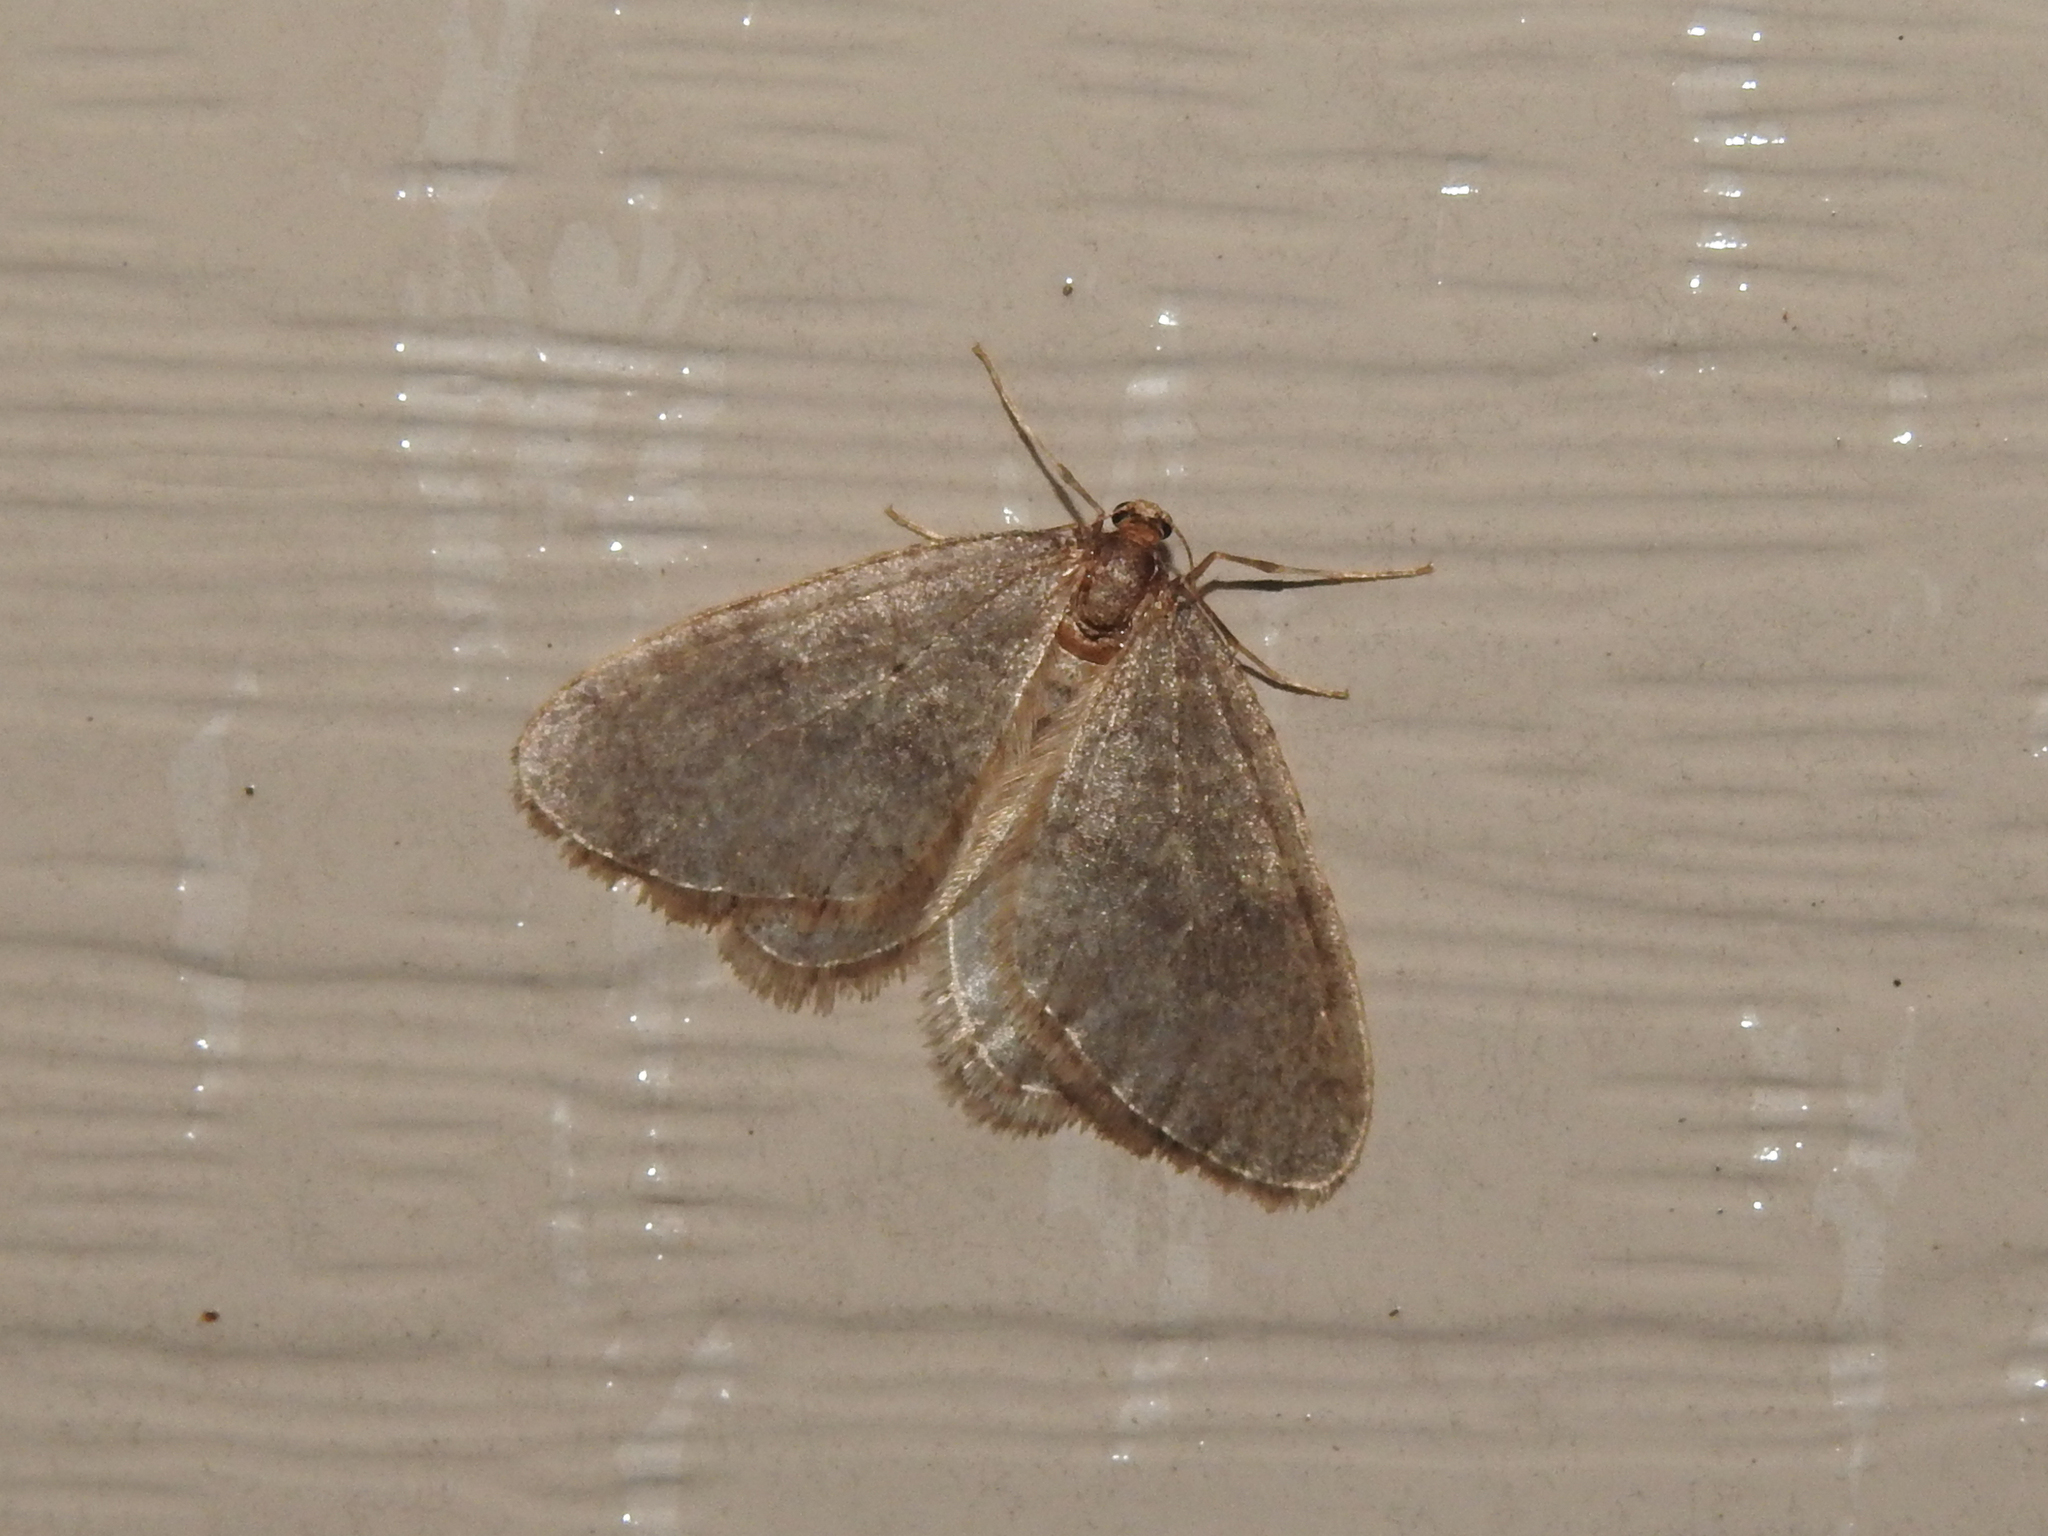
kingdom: Animalia
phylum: Arthropoda
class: Insecta
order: Lepidoptera
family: Geometridae
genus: Operophtera
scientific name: Operophtera brumata
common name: Winter moth
